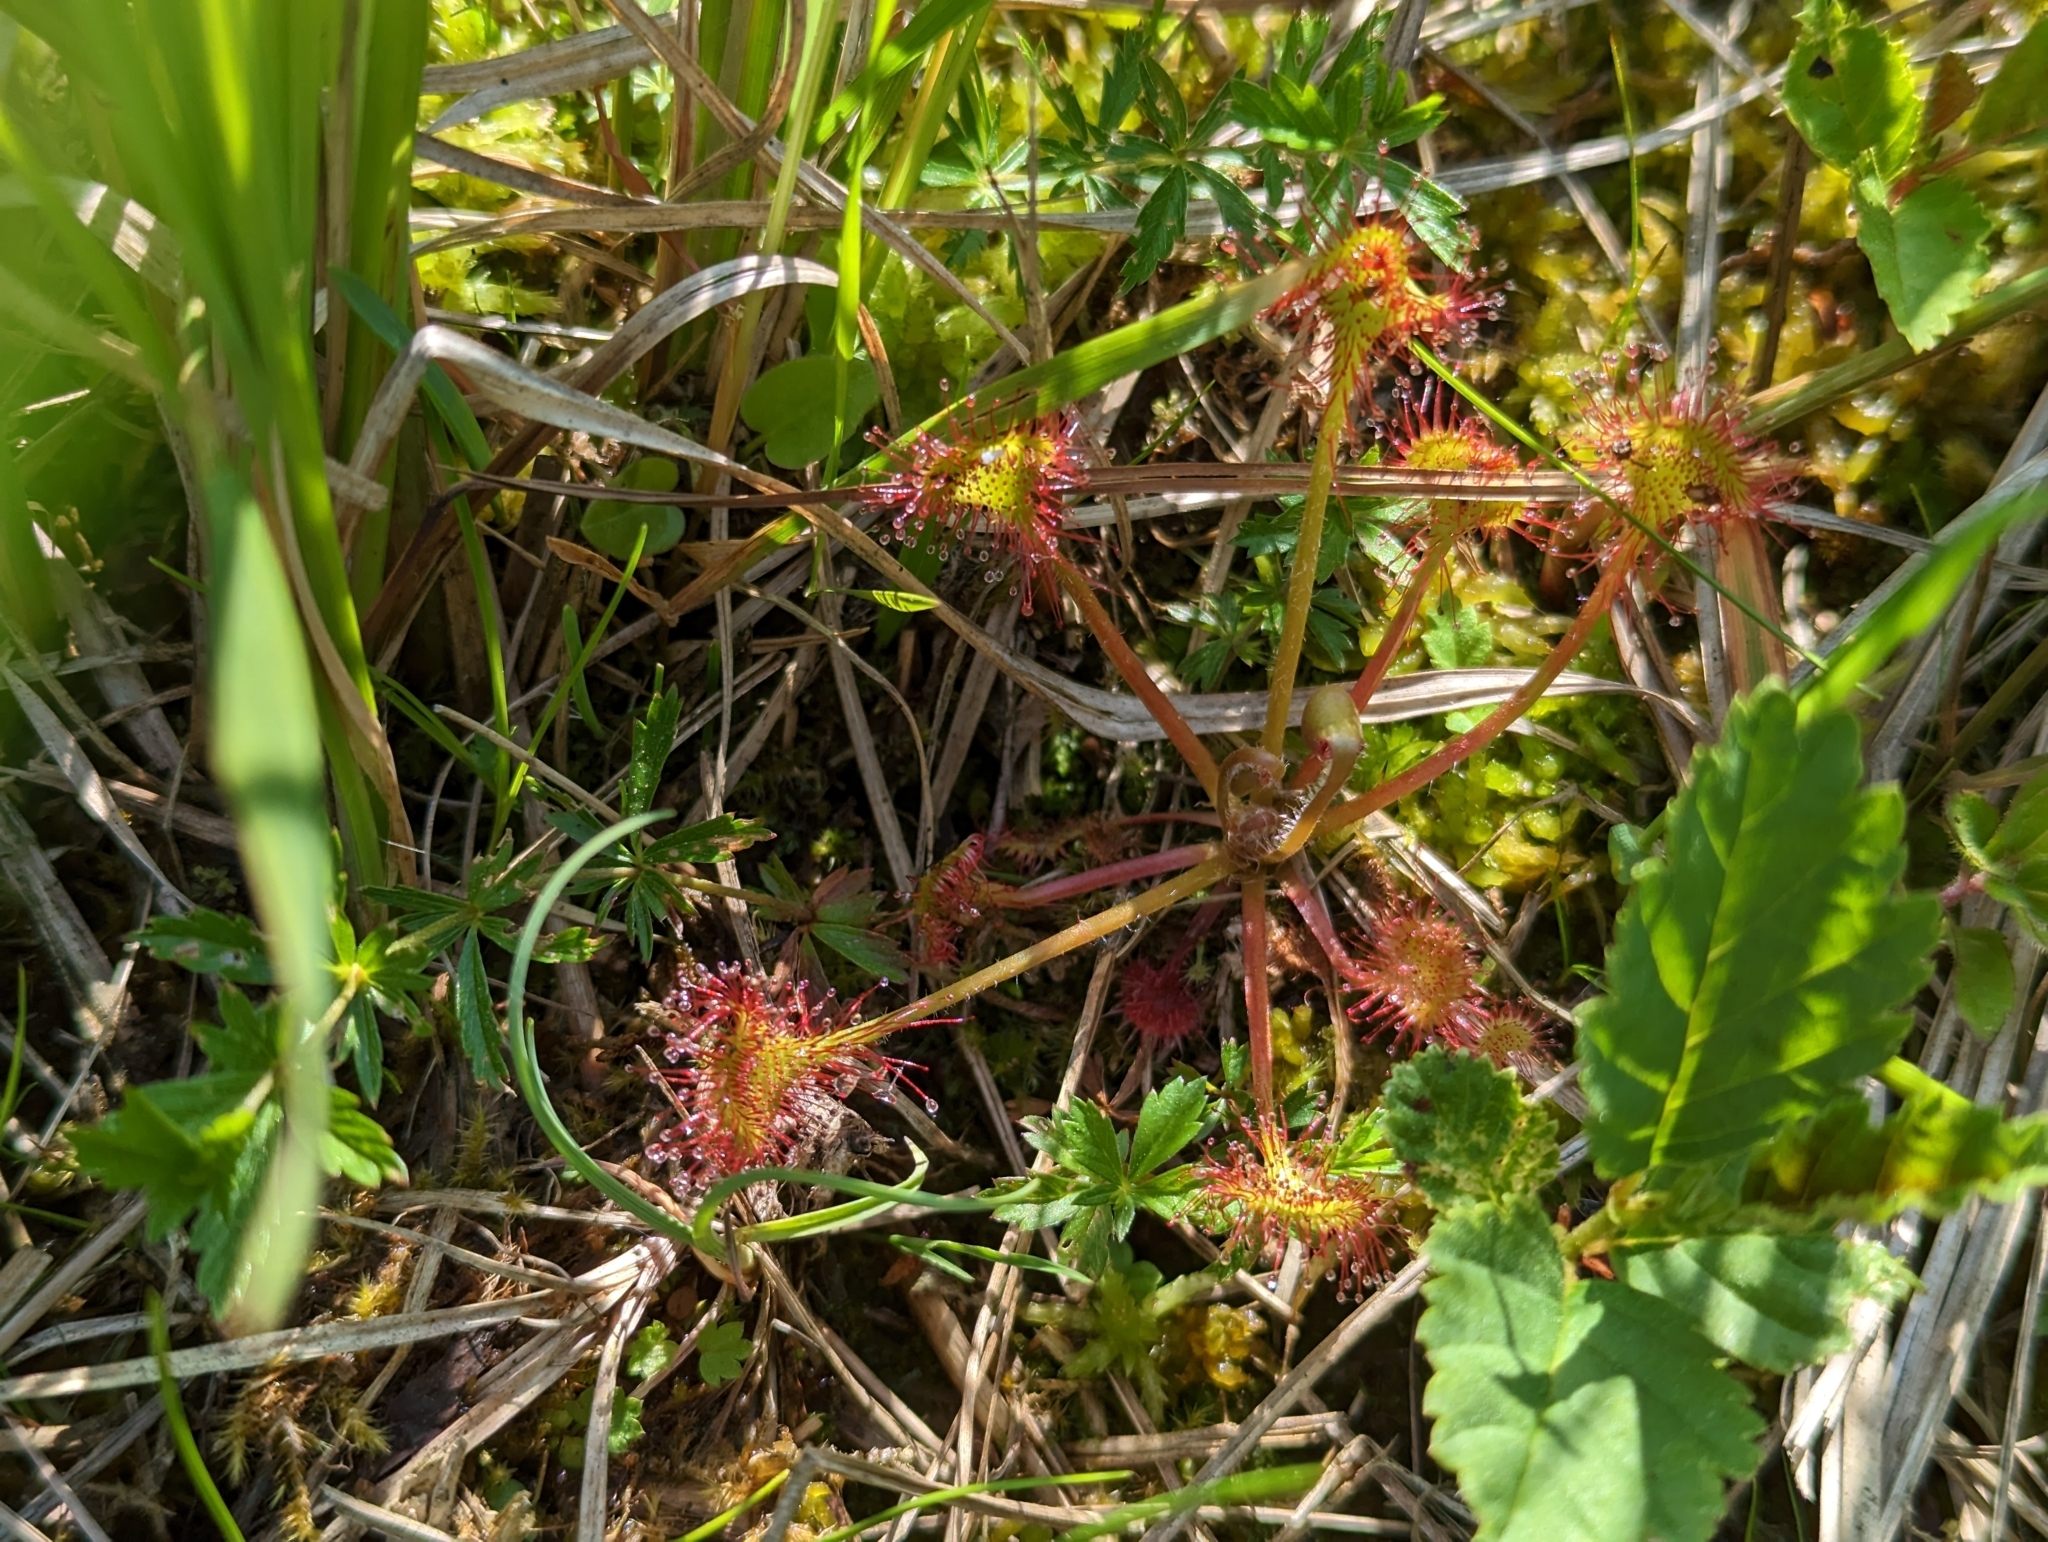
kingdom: Plantae
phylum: Tracheophyta
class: Magnoliopsida
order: Caryophyllales
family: Droseraceae
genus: Drosera
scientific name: Drosera rotundifolia
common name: Round-leaved sundew
